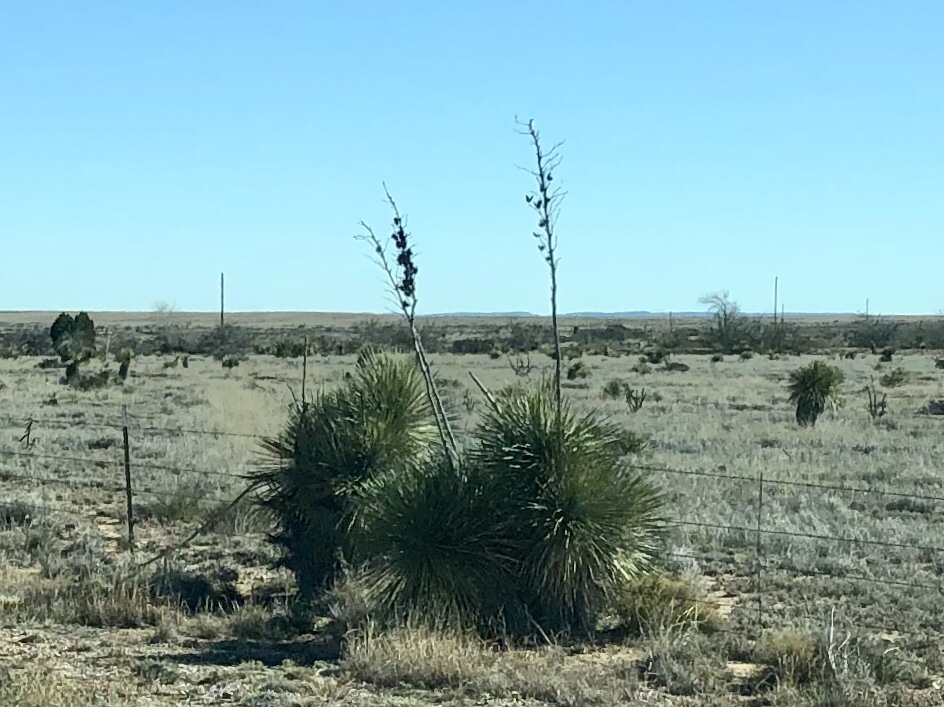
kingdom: Plantae
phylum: Tracheophyta
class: Liliopsida
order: Asparagales
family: Asparagaceae
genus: Yucca
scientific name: Yucca elata
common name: Palmella
